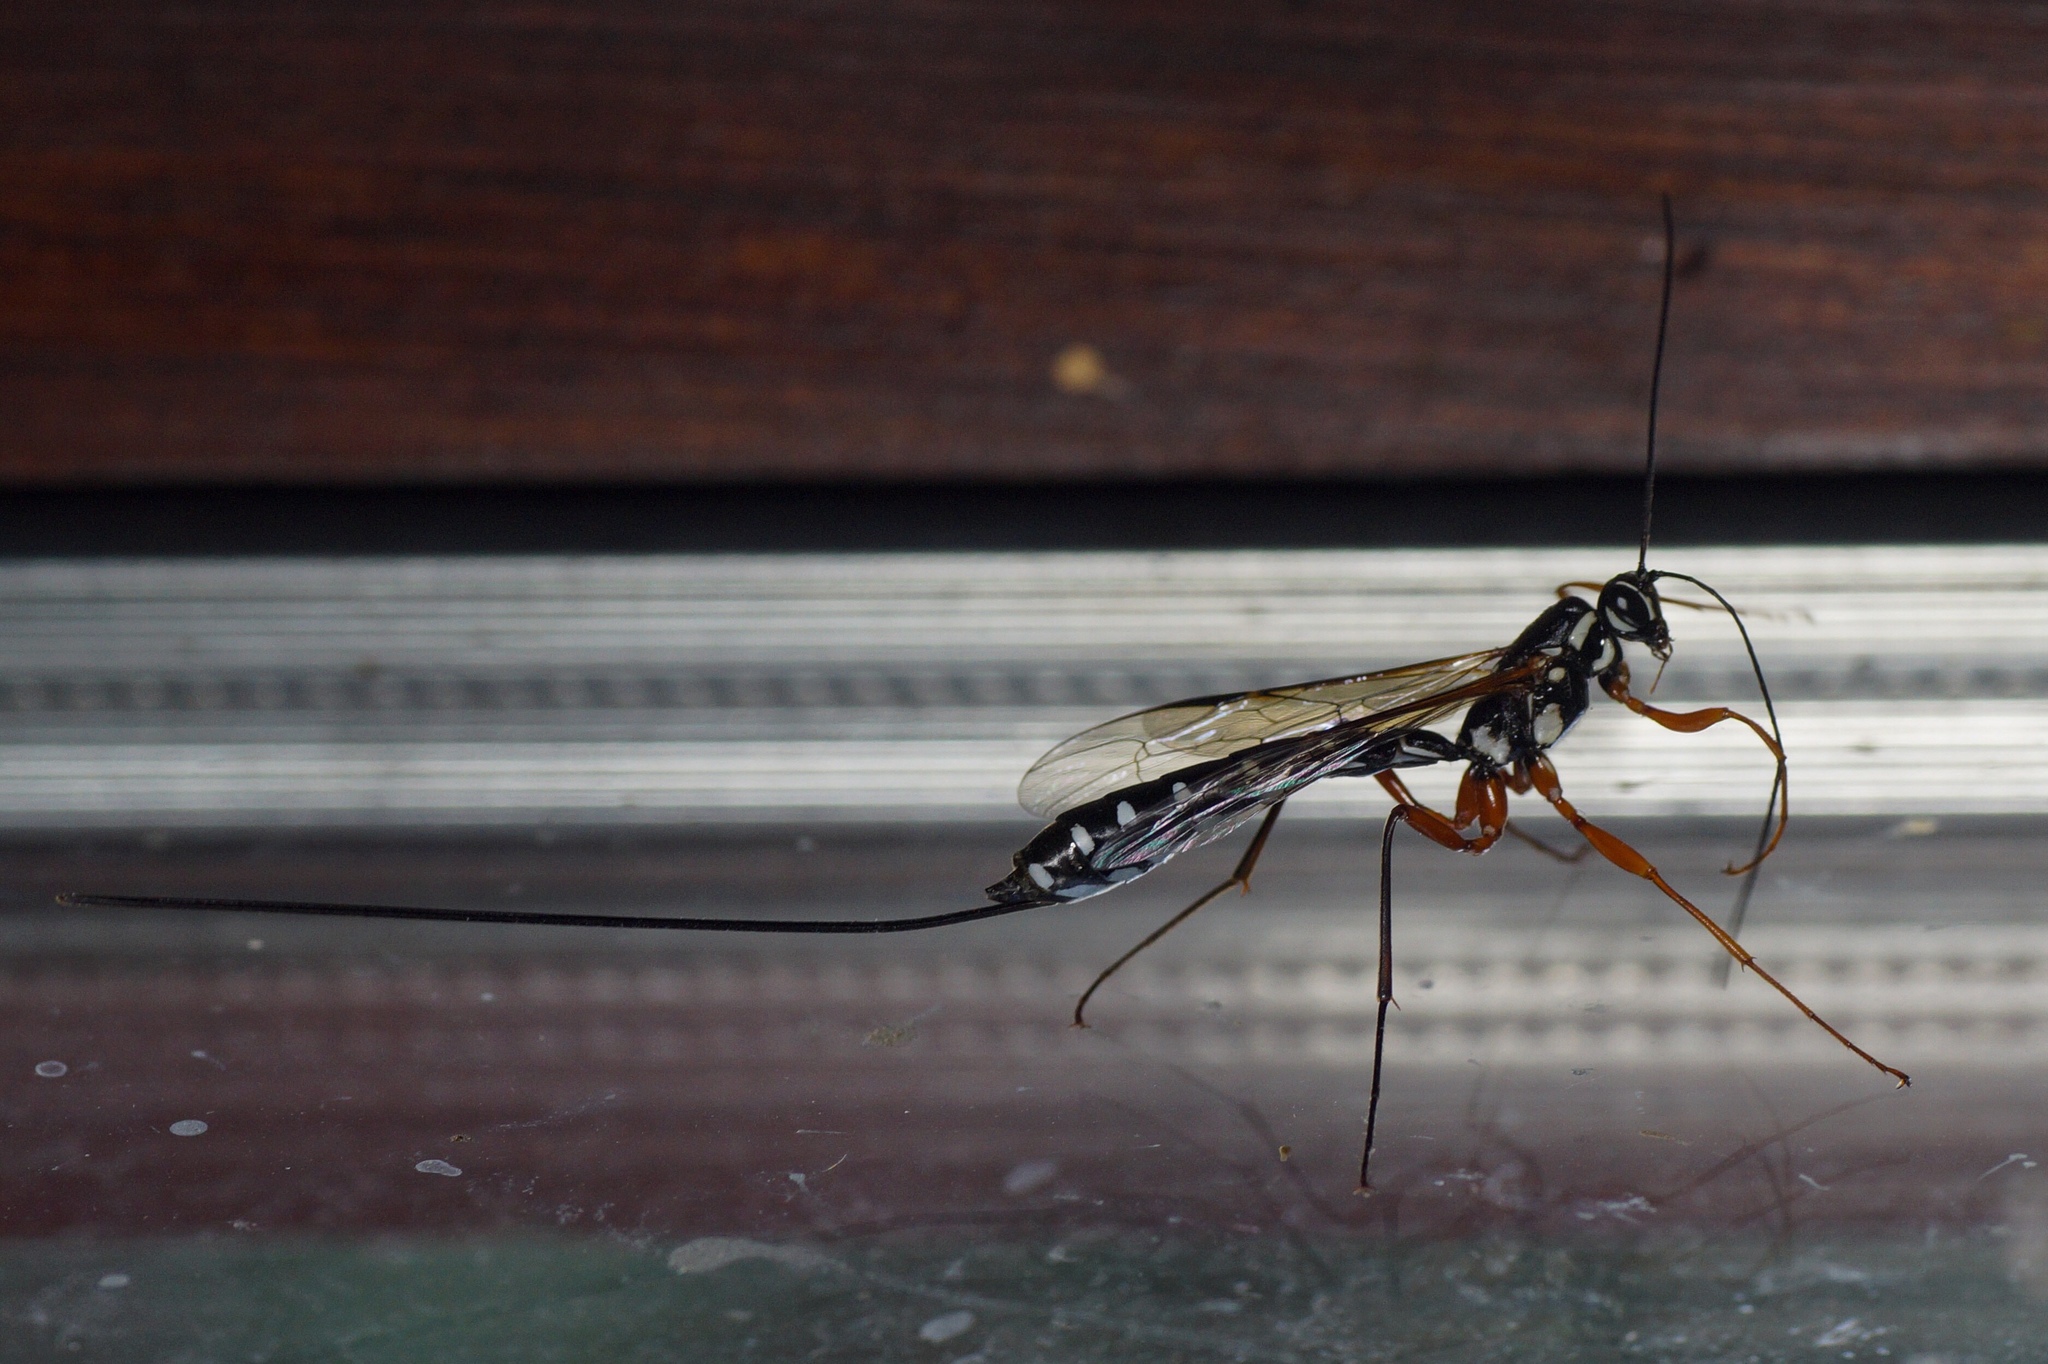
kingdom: Animalia
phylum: Arthropoda
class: Insecta
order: Hymenoptera
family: Ichneumonidae
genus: Rhyssa
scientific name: Rhyssa persuasoria
